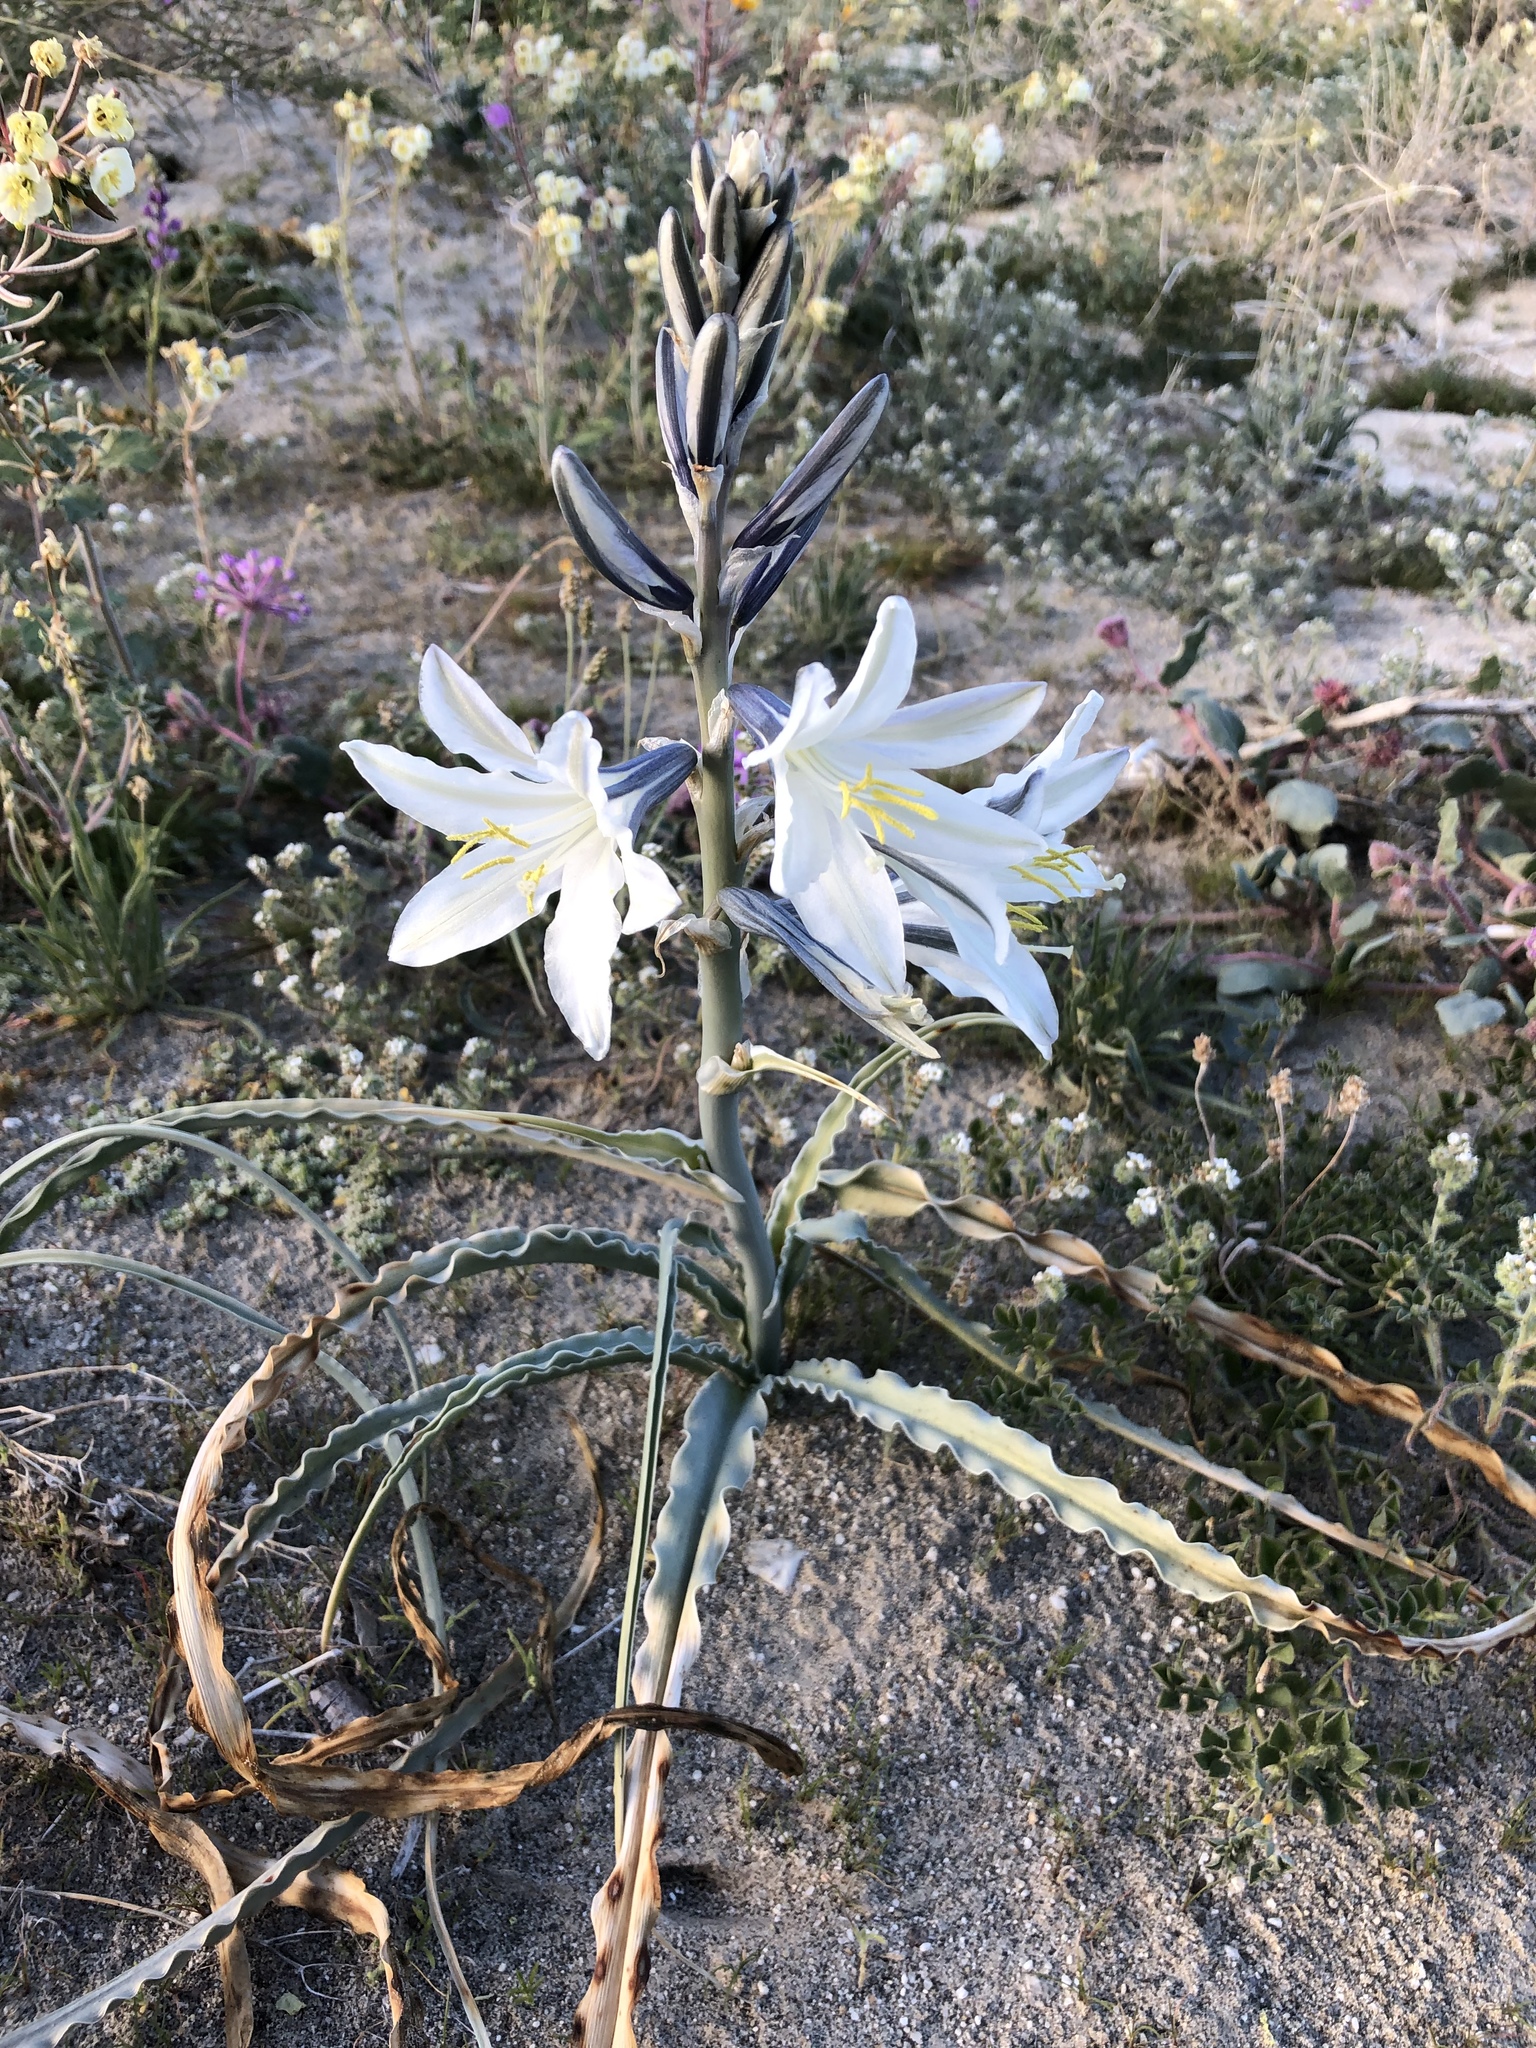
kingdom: Plantae
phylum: Tracheophyta
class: Liliopsida
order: Asparagales
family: Asparagaceae
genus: Hesperocallis
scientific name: Hesperocallis undulata
